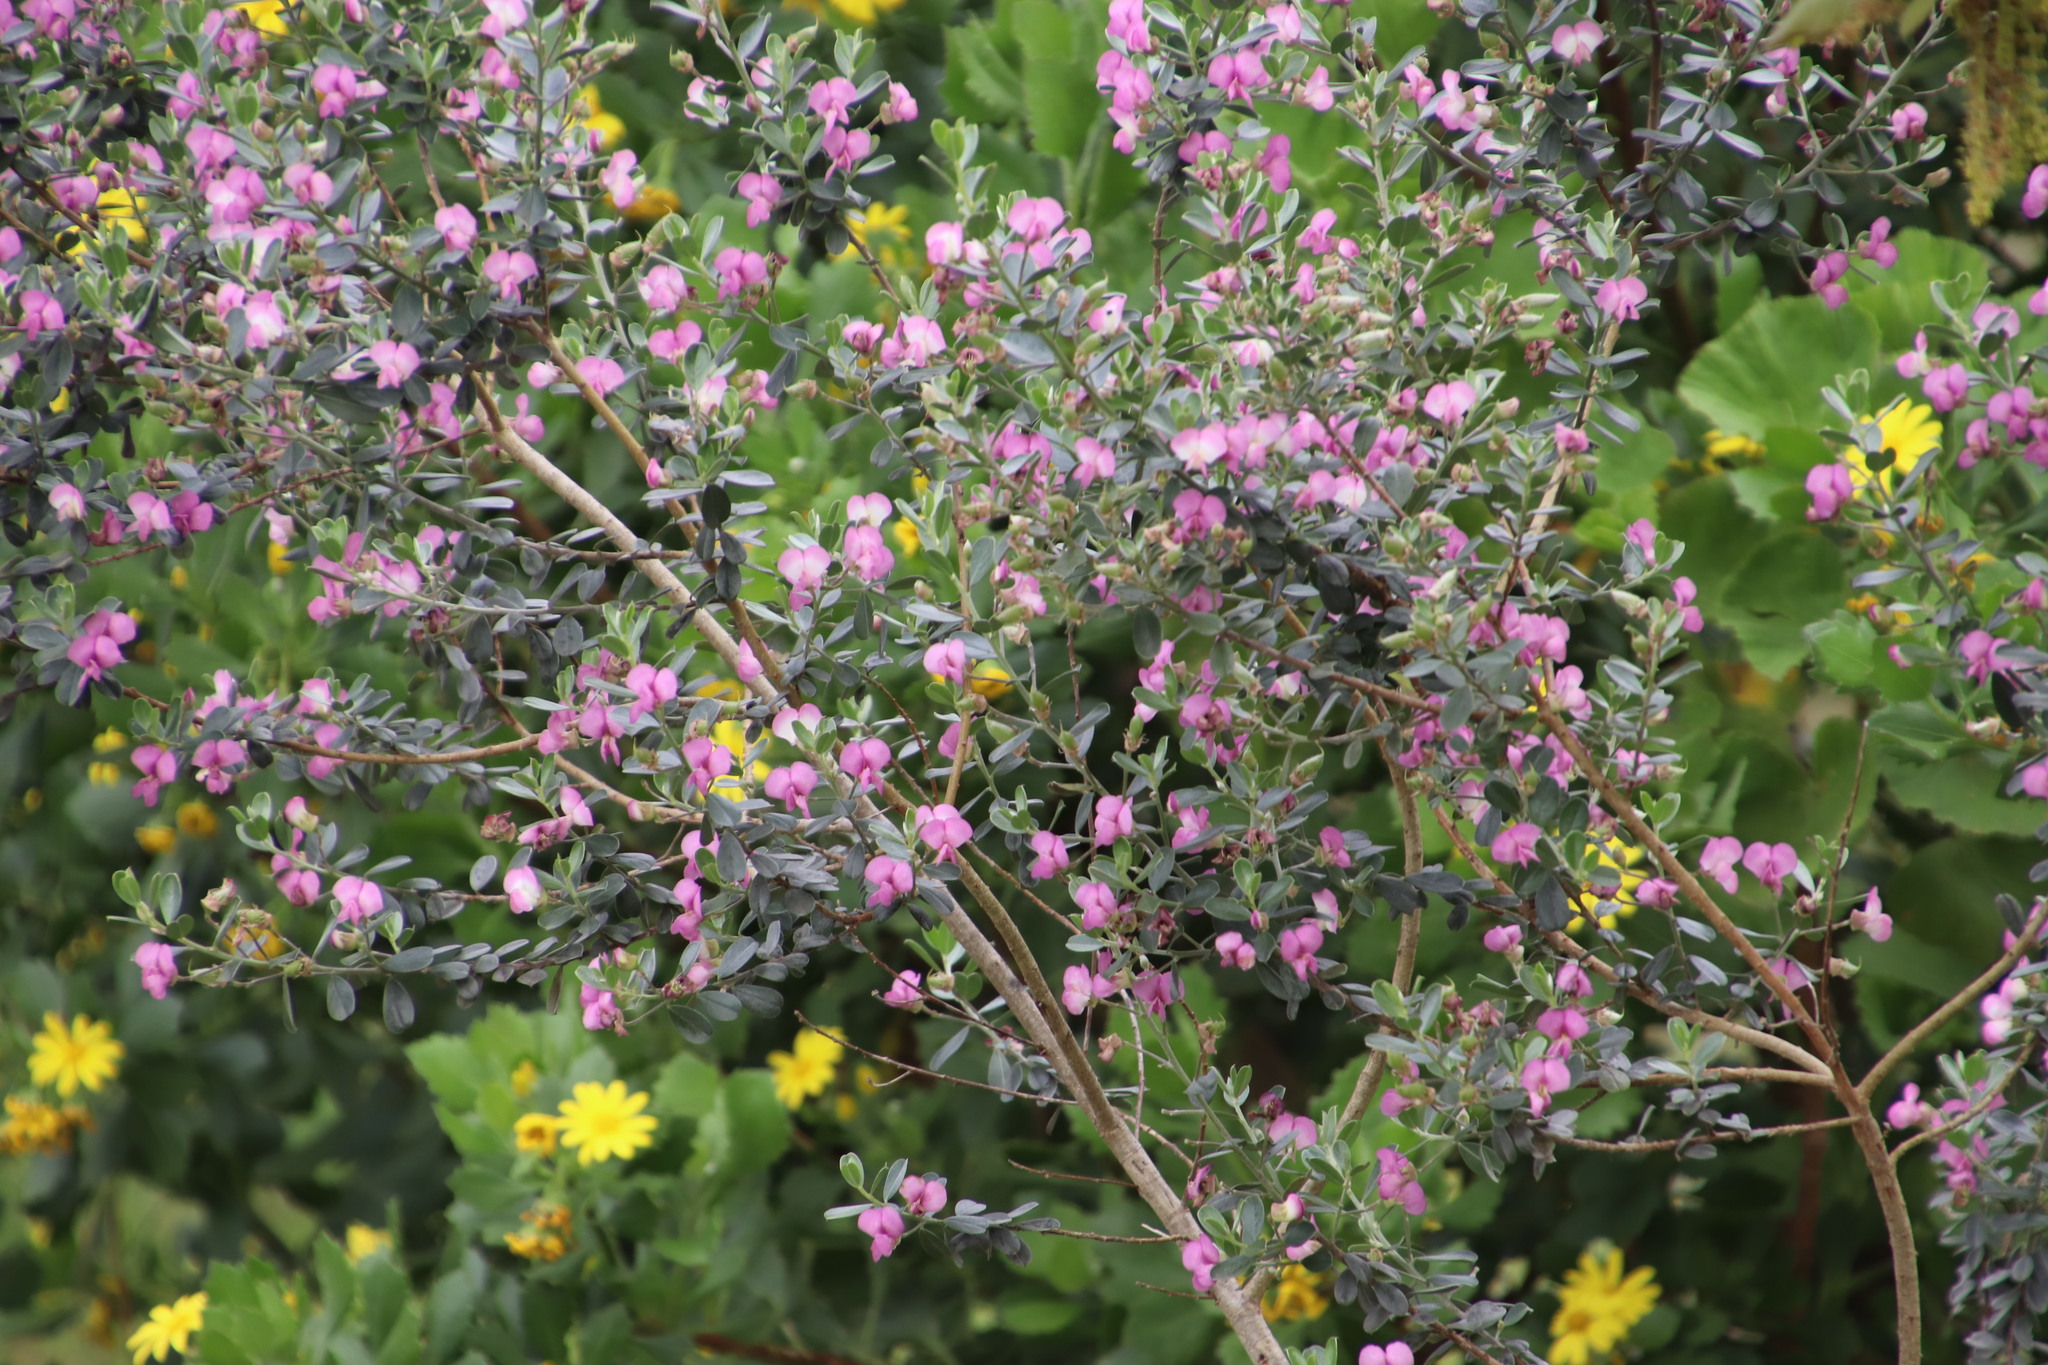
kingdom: Plantae
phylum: Tracheophyta
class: Magnoliopsida
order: Fabales
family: Fabaceae
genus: Podalyria
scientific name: Podalyria myrtillifolia
